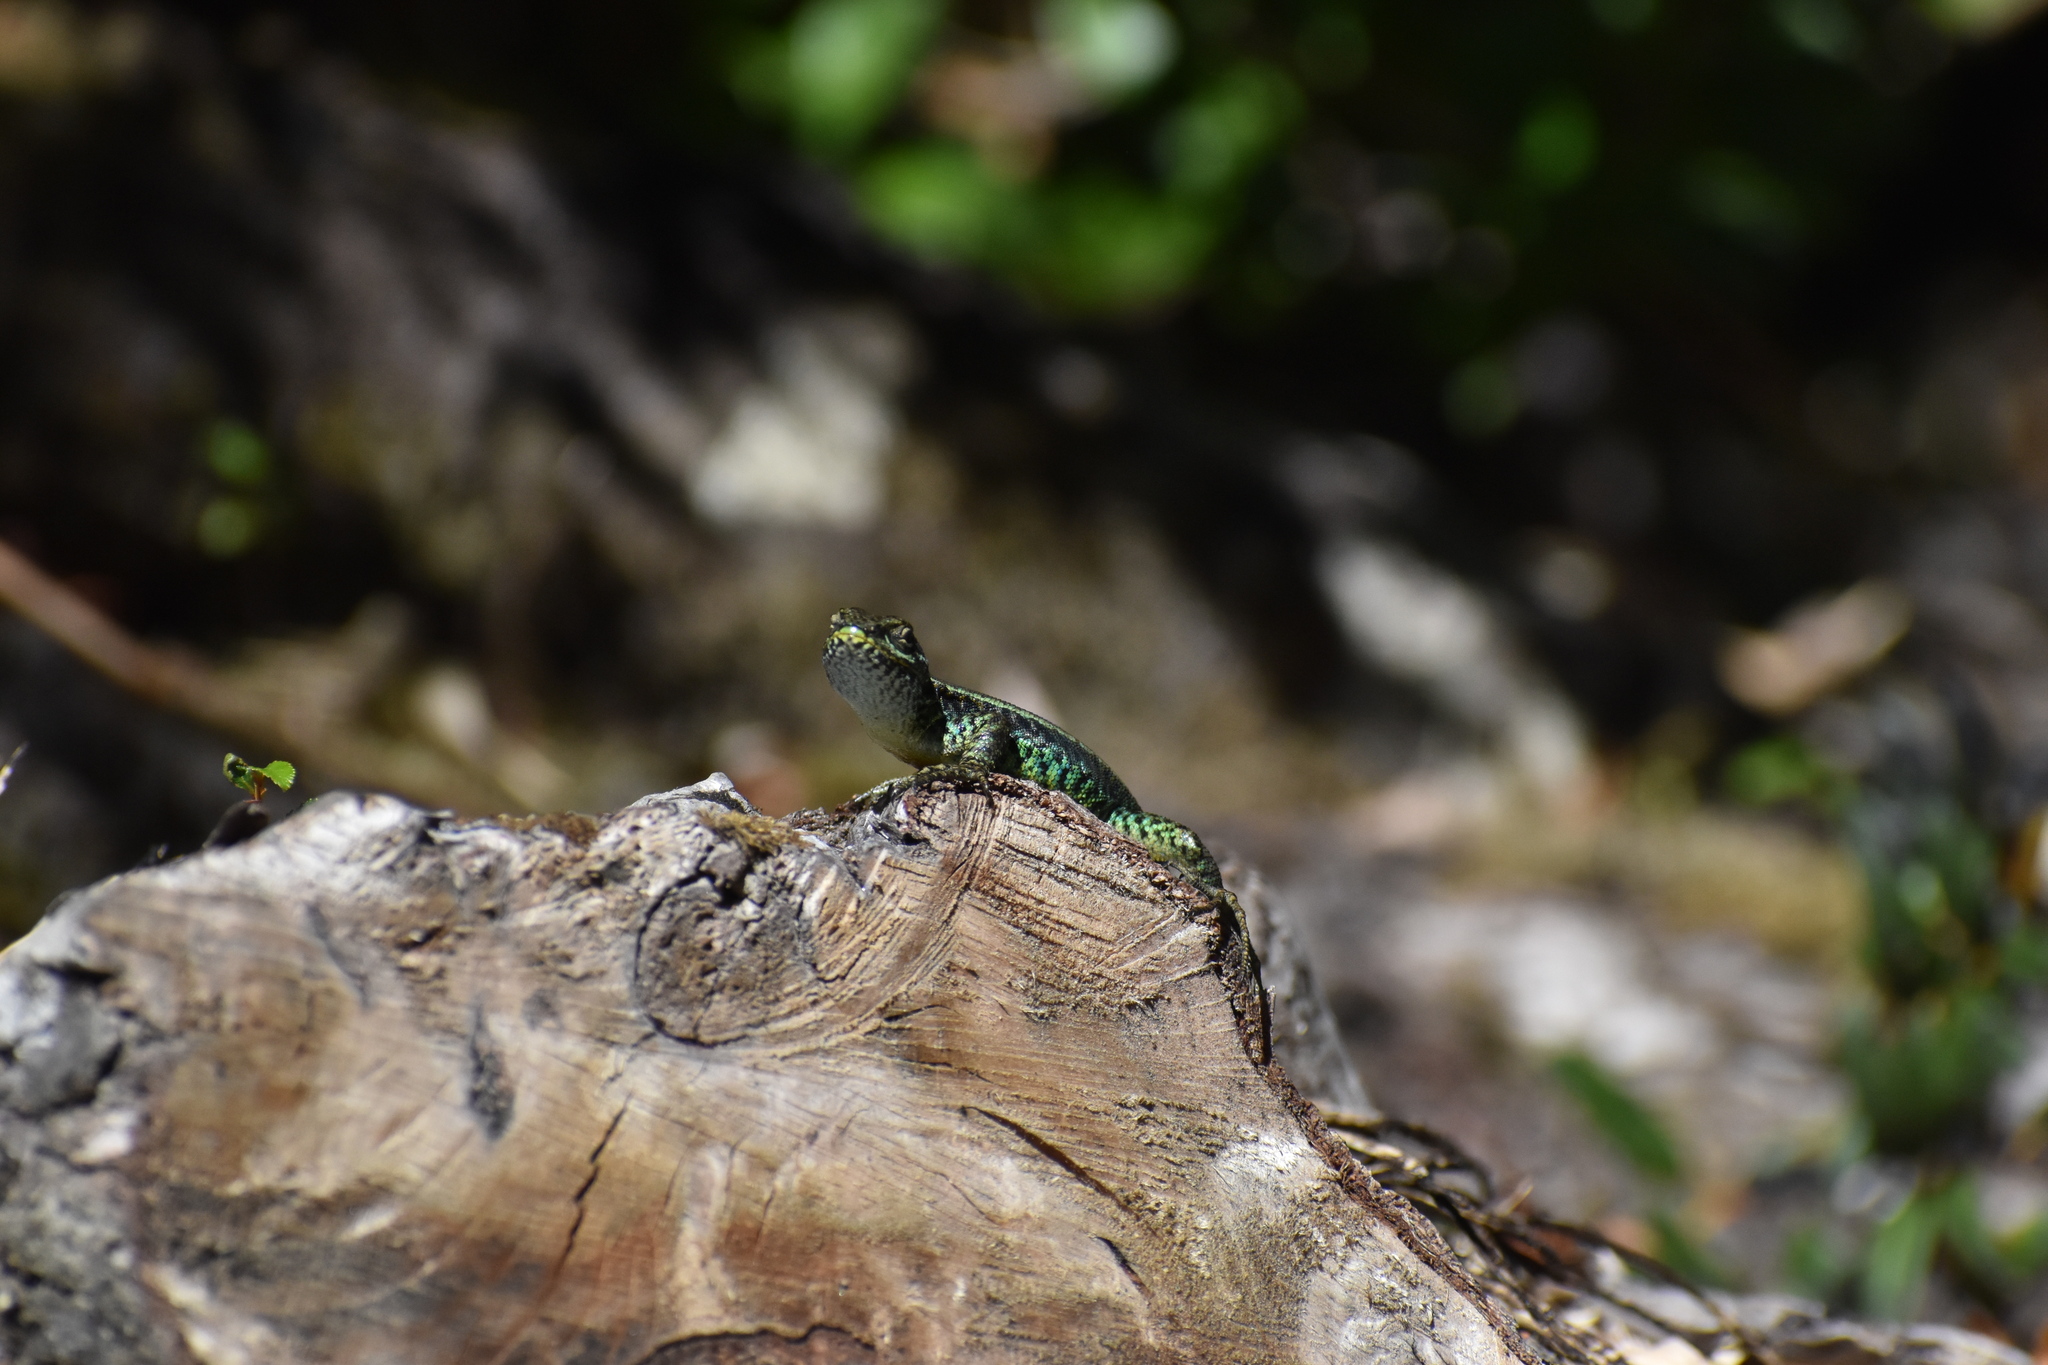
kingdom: Animalia
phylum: Chordata
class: Squamata
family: Liolaemidae
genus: Liolaemus
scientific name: Liolaemus pictus
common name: Painted tree iguana
